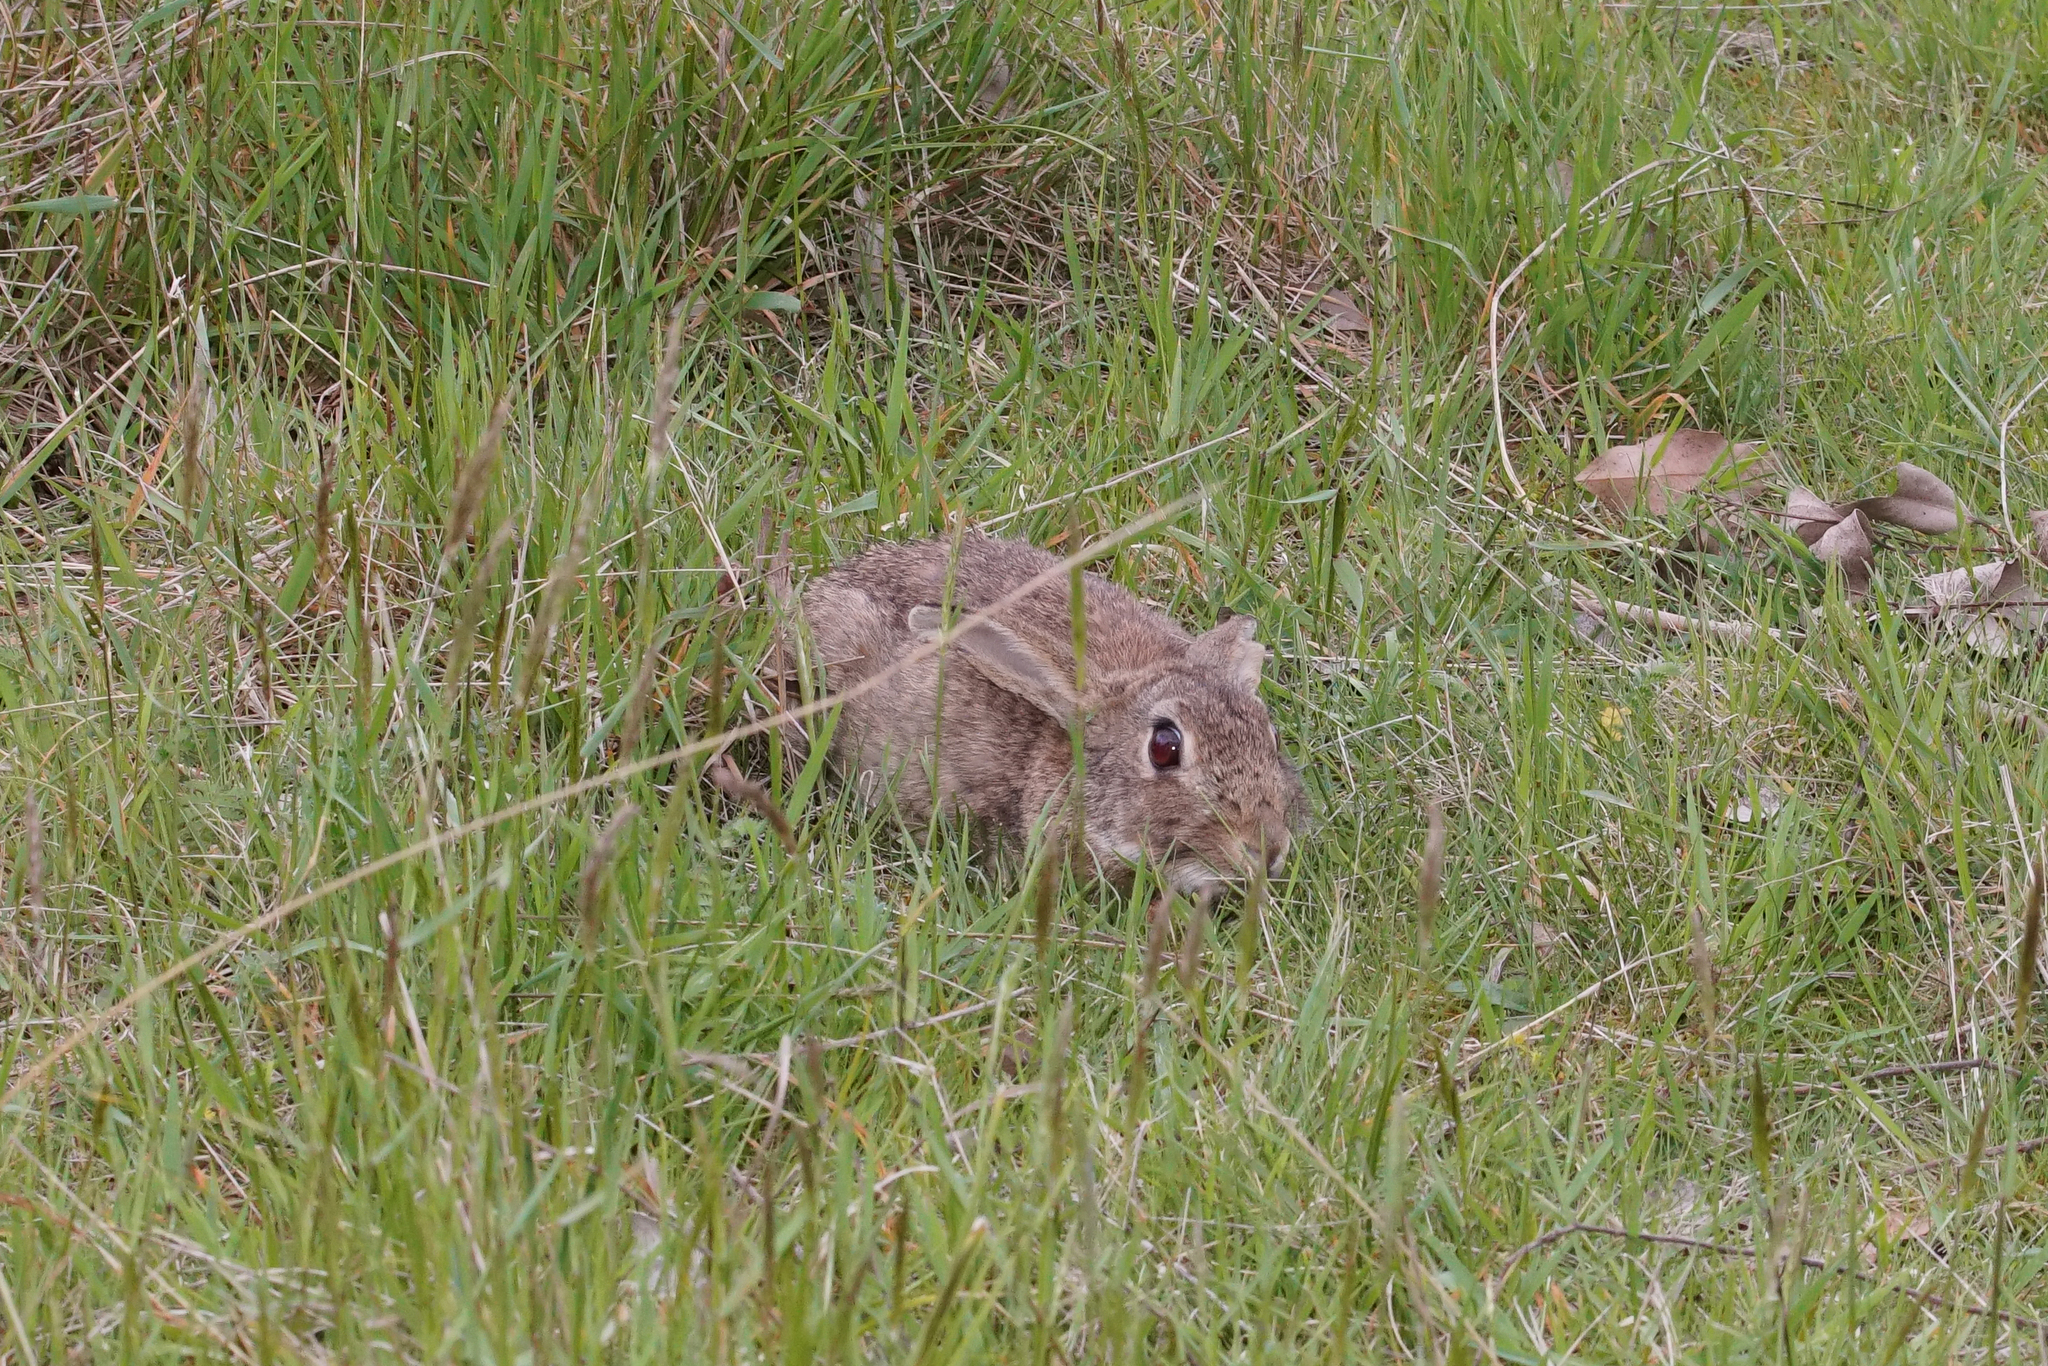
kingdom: Animalia
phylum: Chordata
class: Mammalia
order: Lagomorpha
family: Leporidae
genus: Oryctolagus
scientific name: Oryctolagus cuniculus
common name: European rabbit
